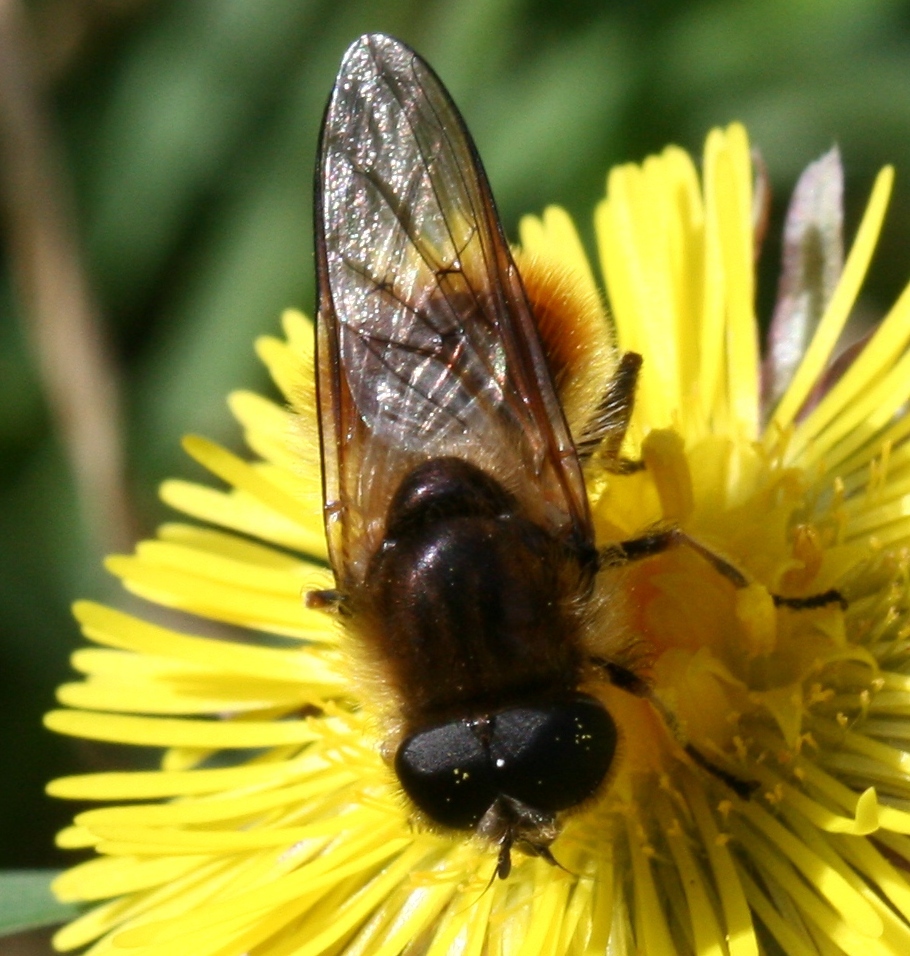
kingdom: Animalia
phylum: Arthropoda
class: Insecta
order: Diptera
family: Syrphidae
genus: Cheilosia
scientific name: Cheilosia corydon
